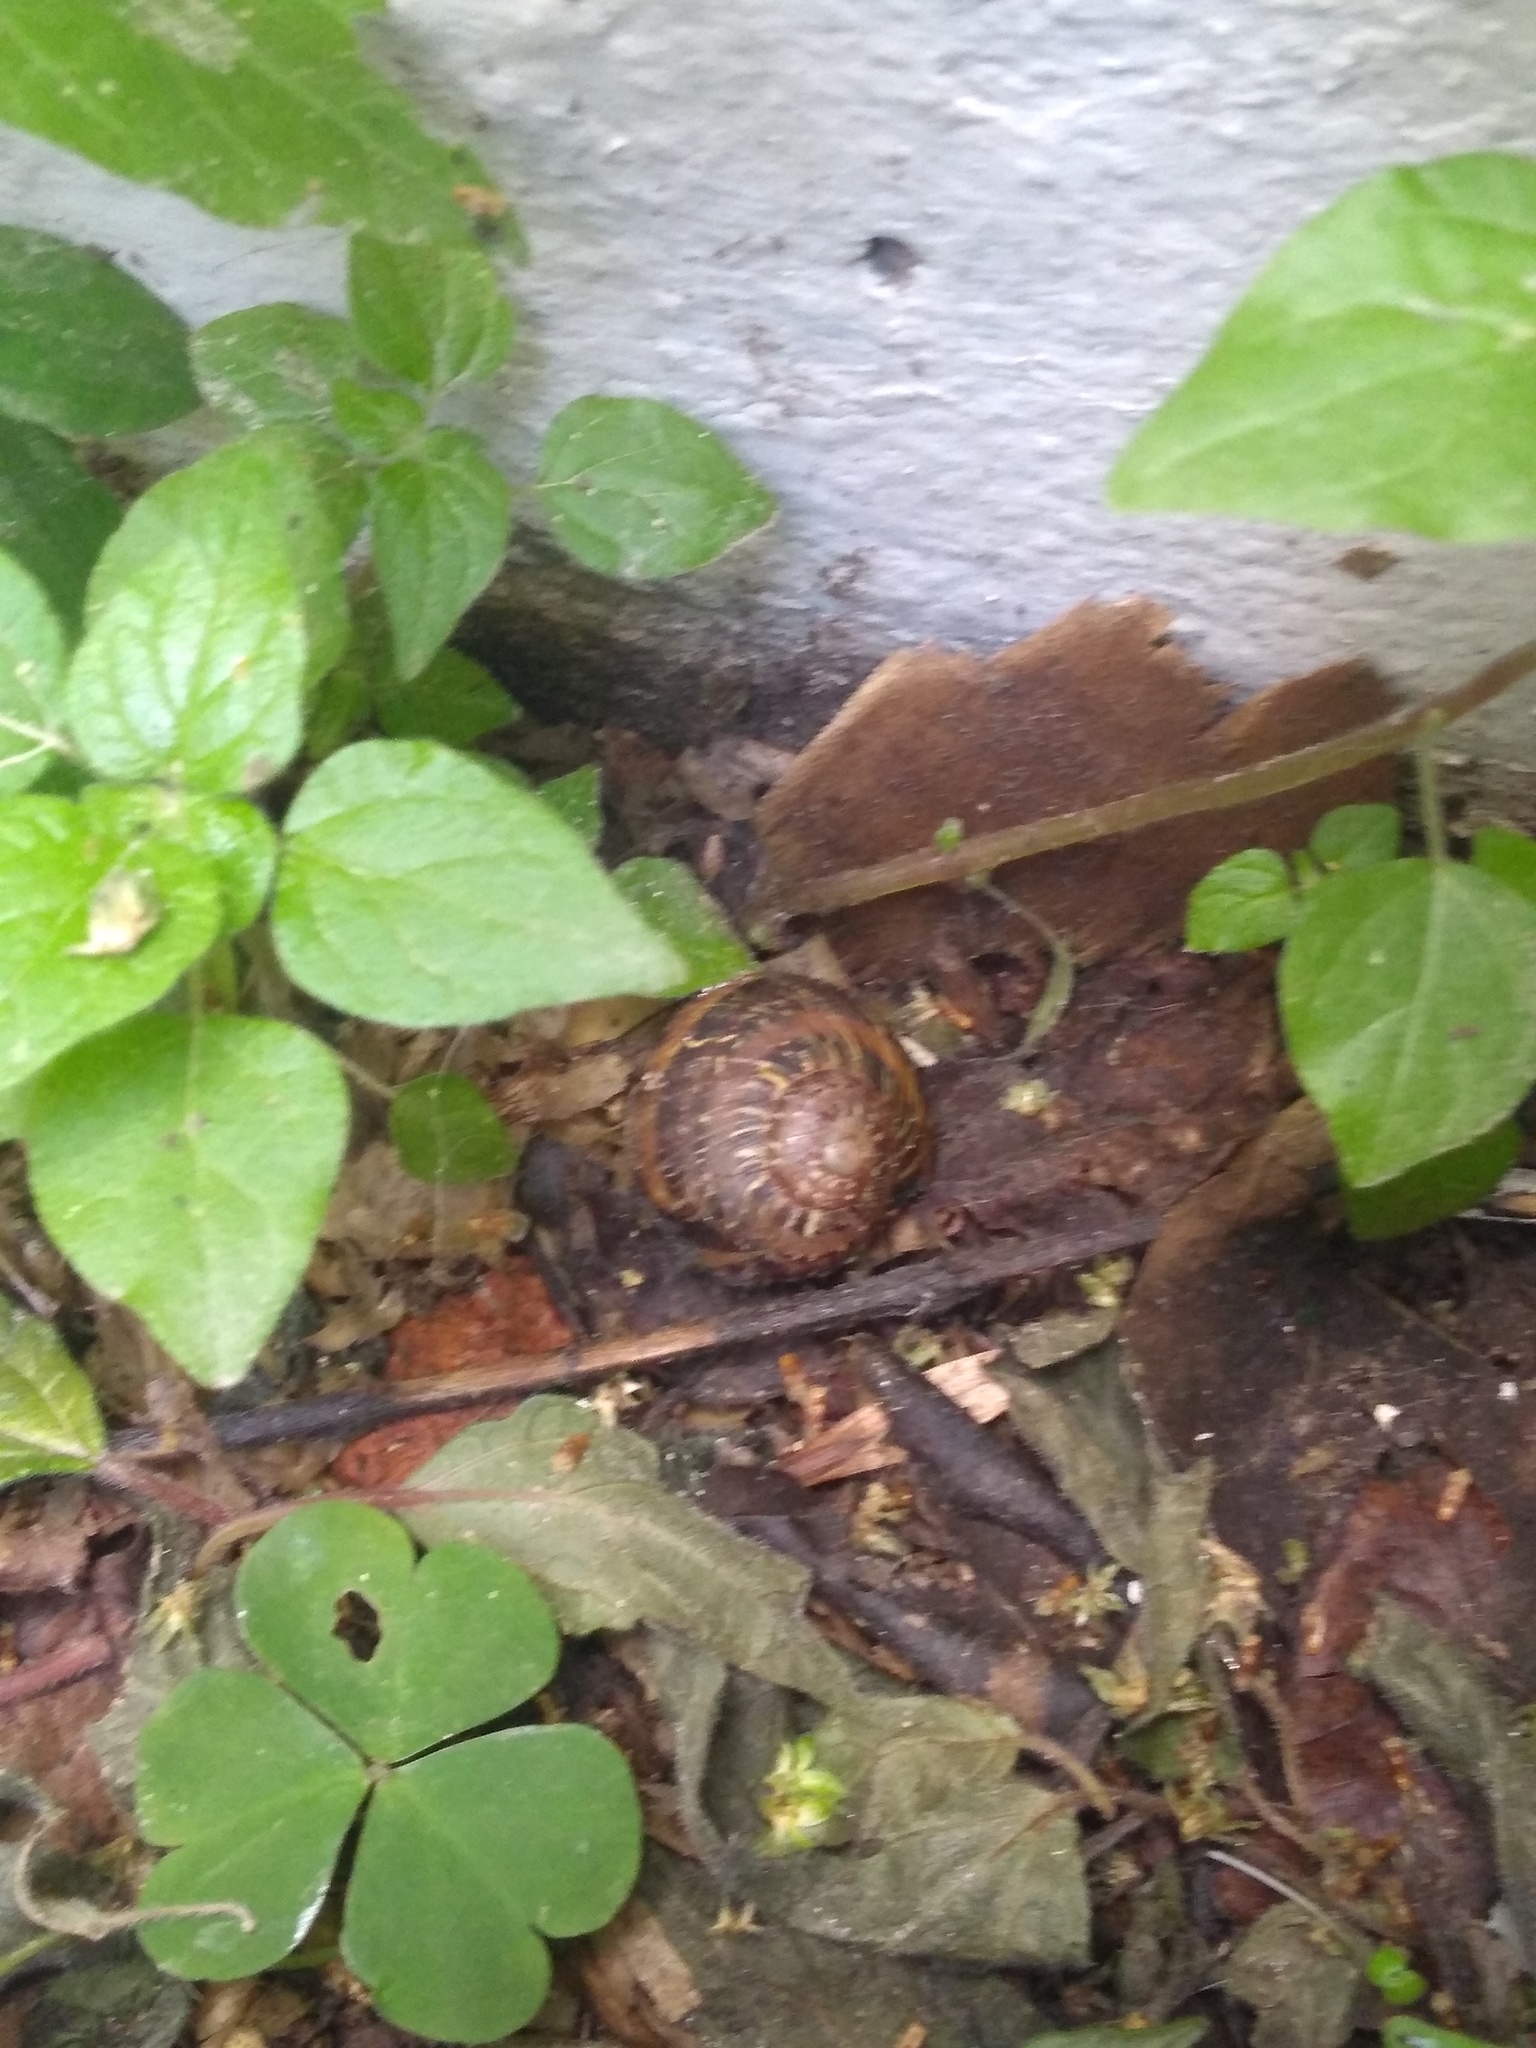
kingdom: Animalia
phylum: Mollusca
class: Gastropoda
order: Stylommatophora
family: Helicidae
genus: Cornu
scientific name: Cornu aspersum
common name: Brown garden snail
